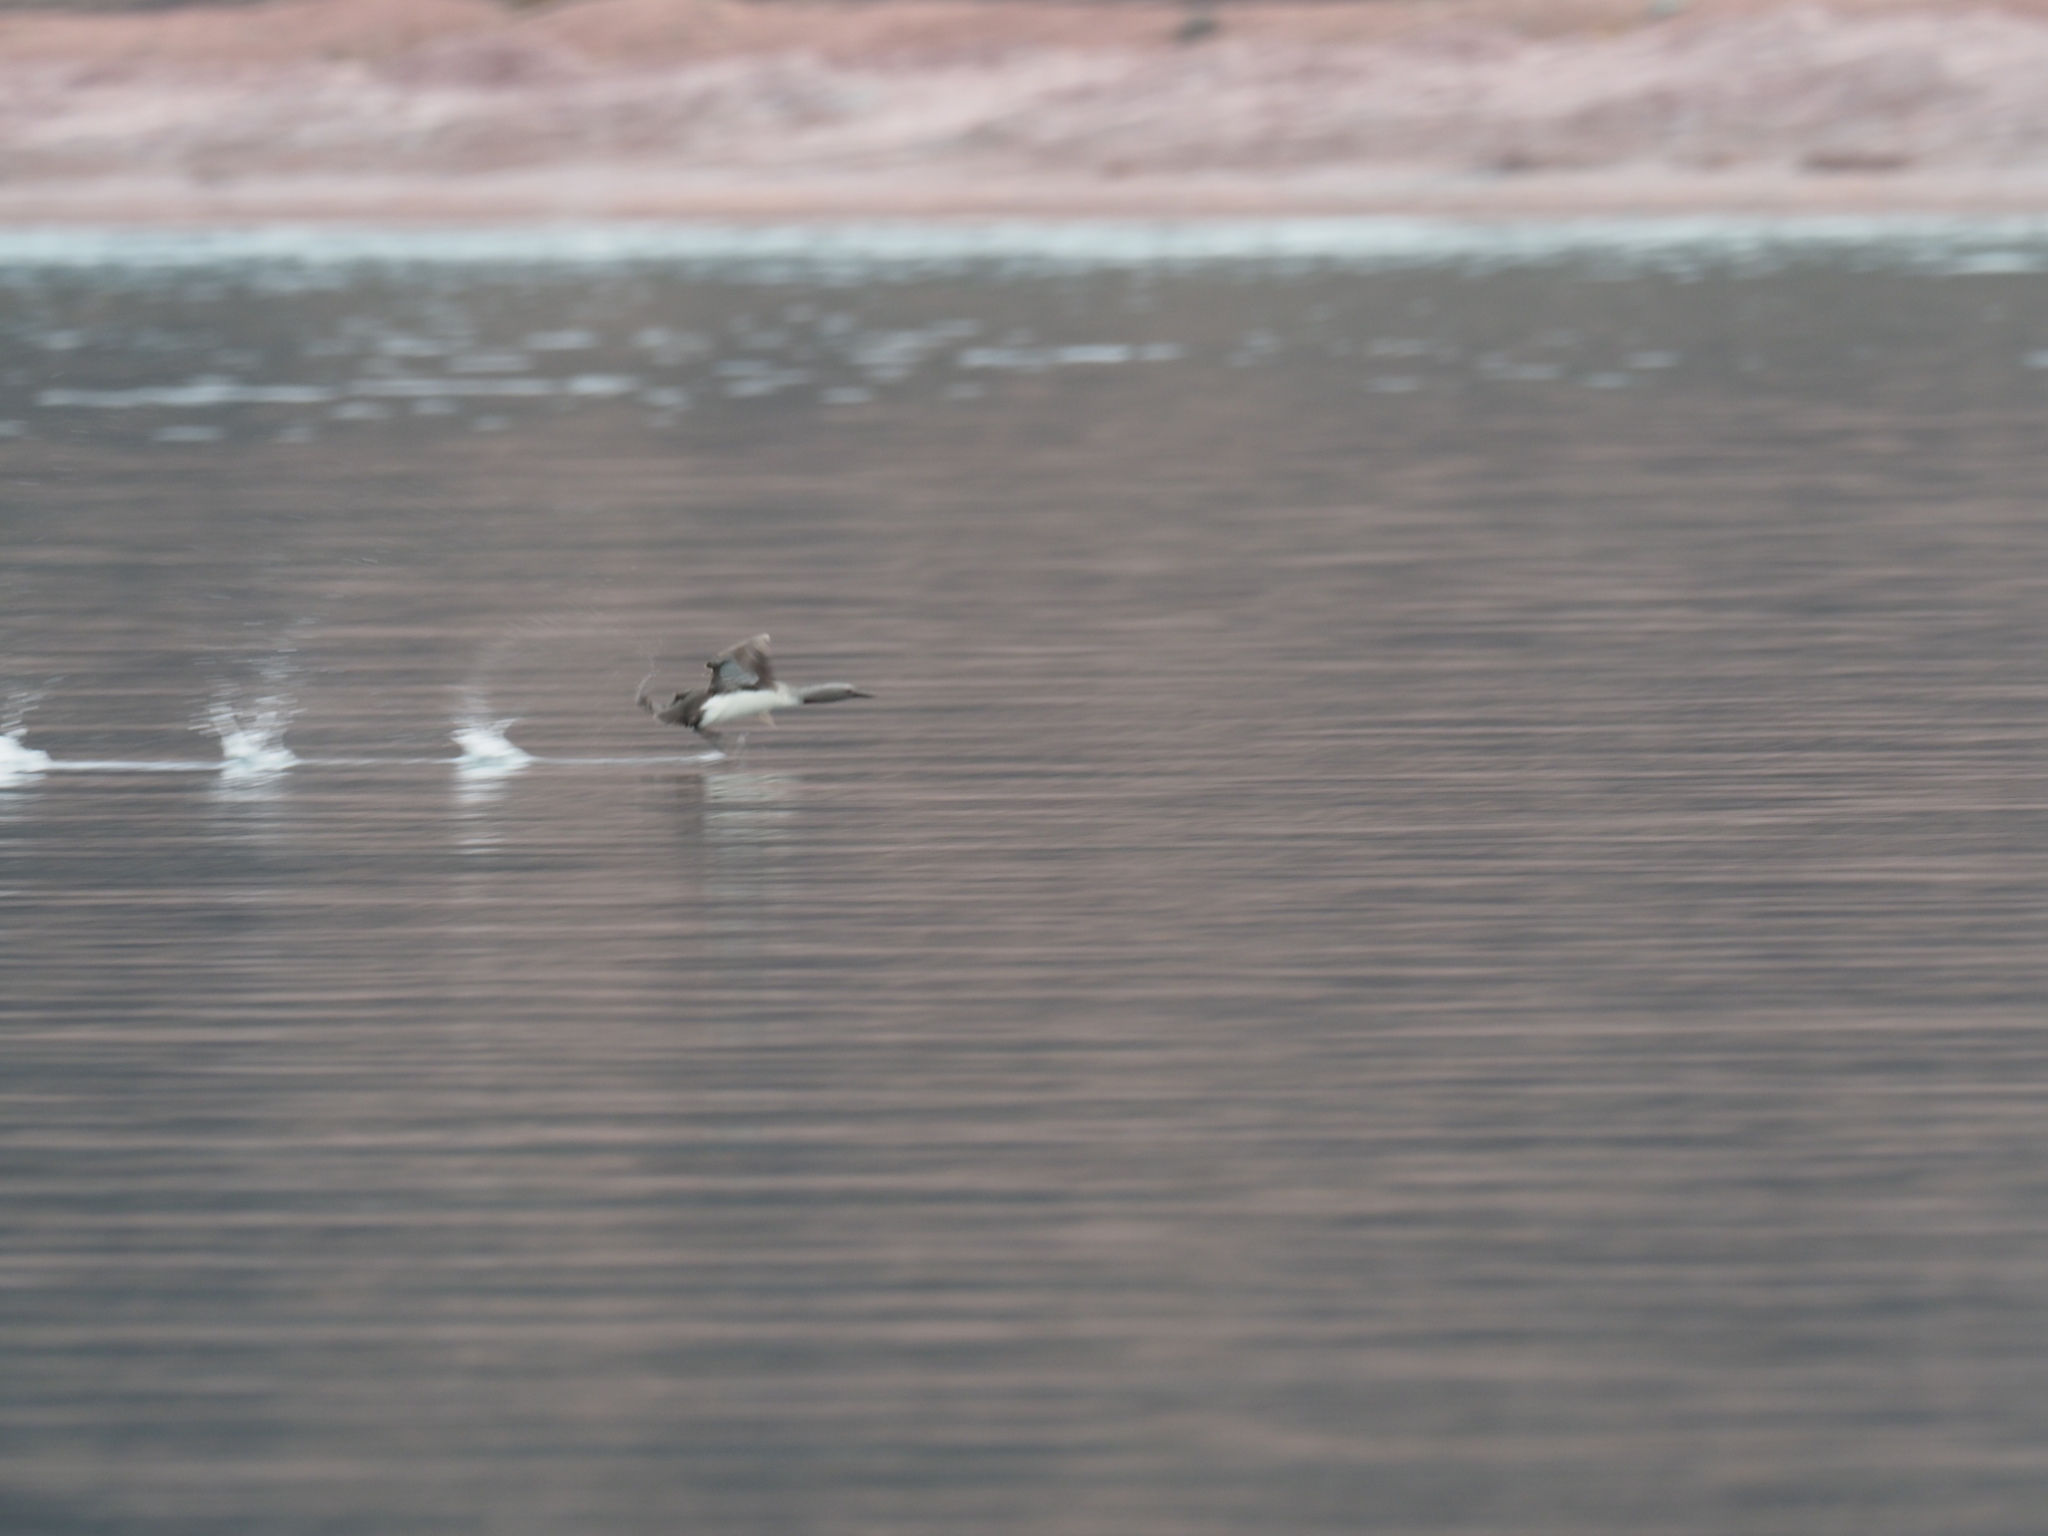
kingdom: Animalia
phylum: Chordata
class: Aves
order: Gaviiformes
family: Gaviidae
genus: Gavia
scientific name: Gavia stellata
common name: Red-throated loon
